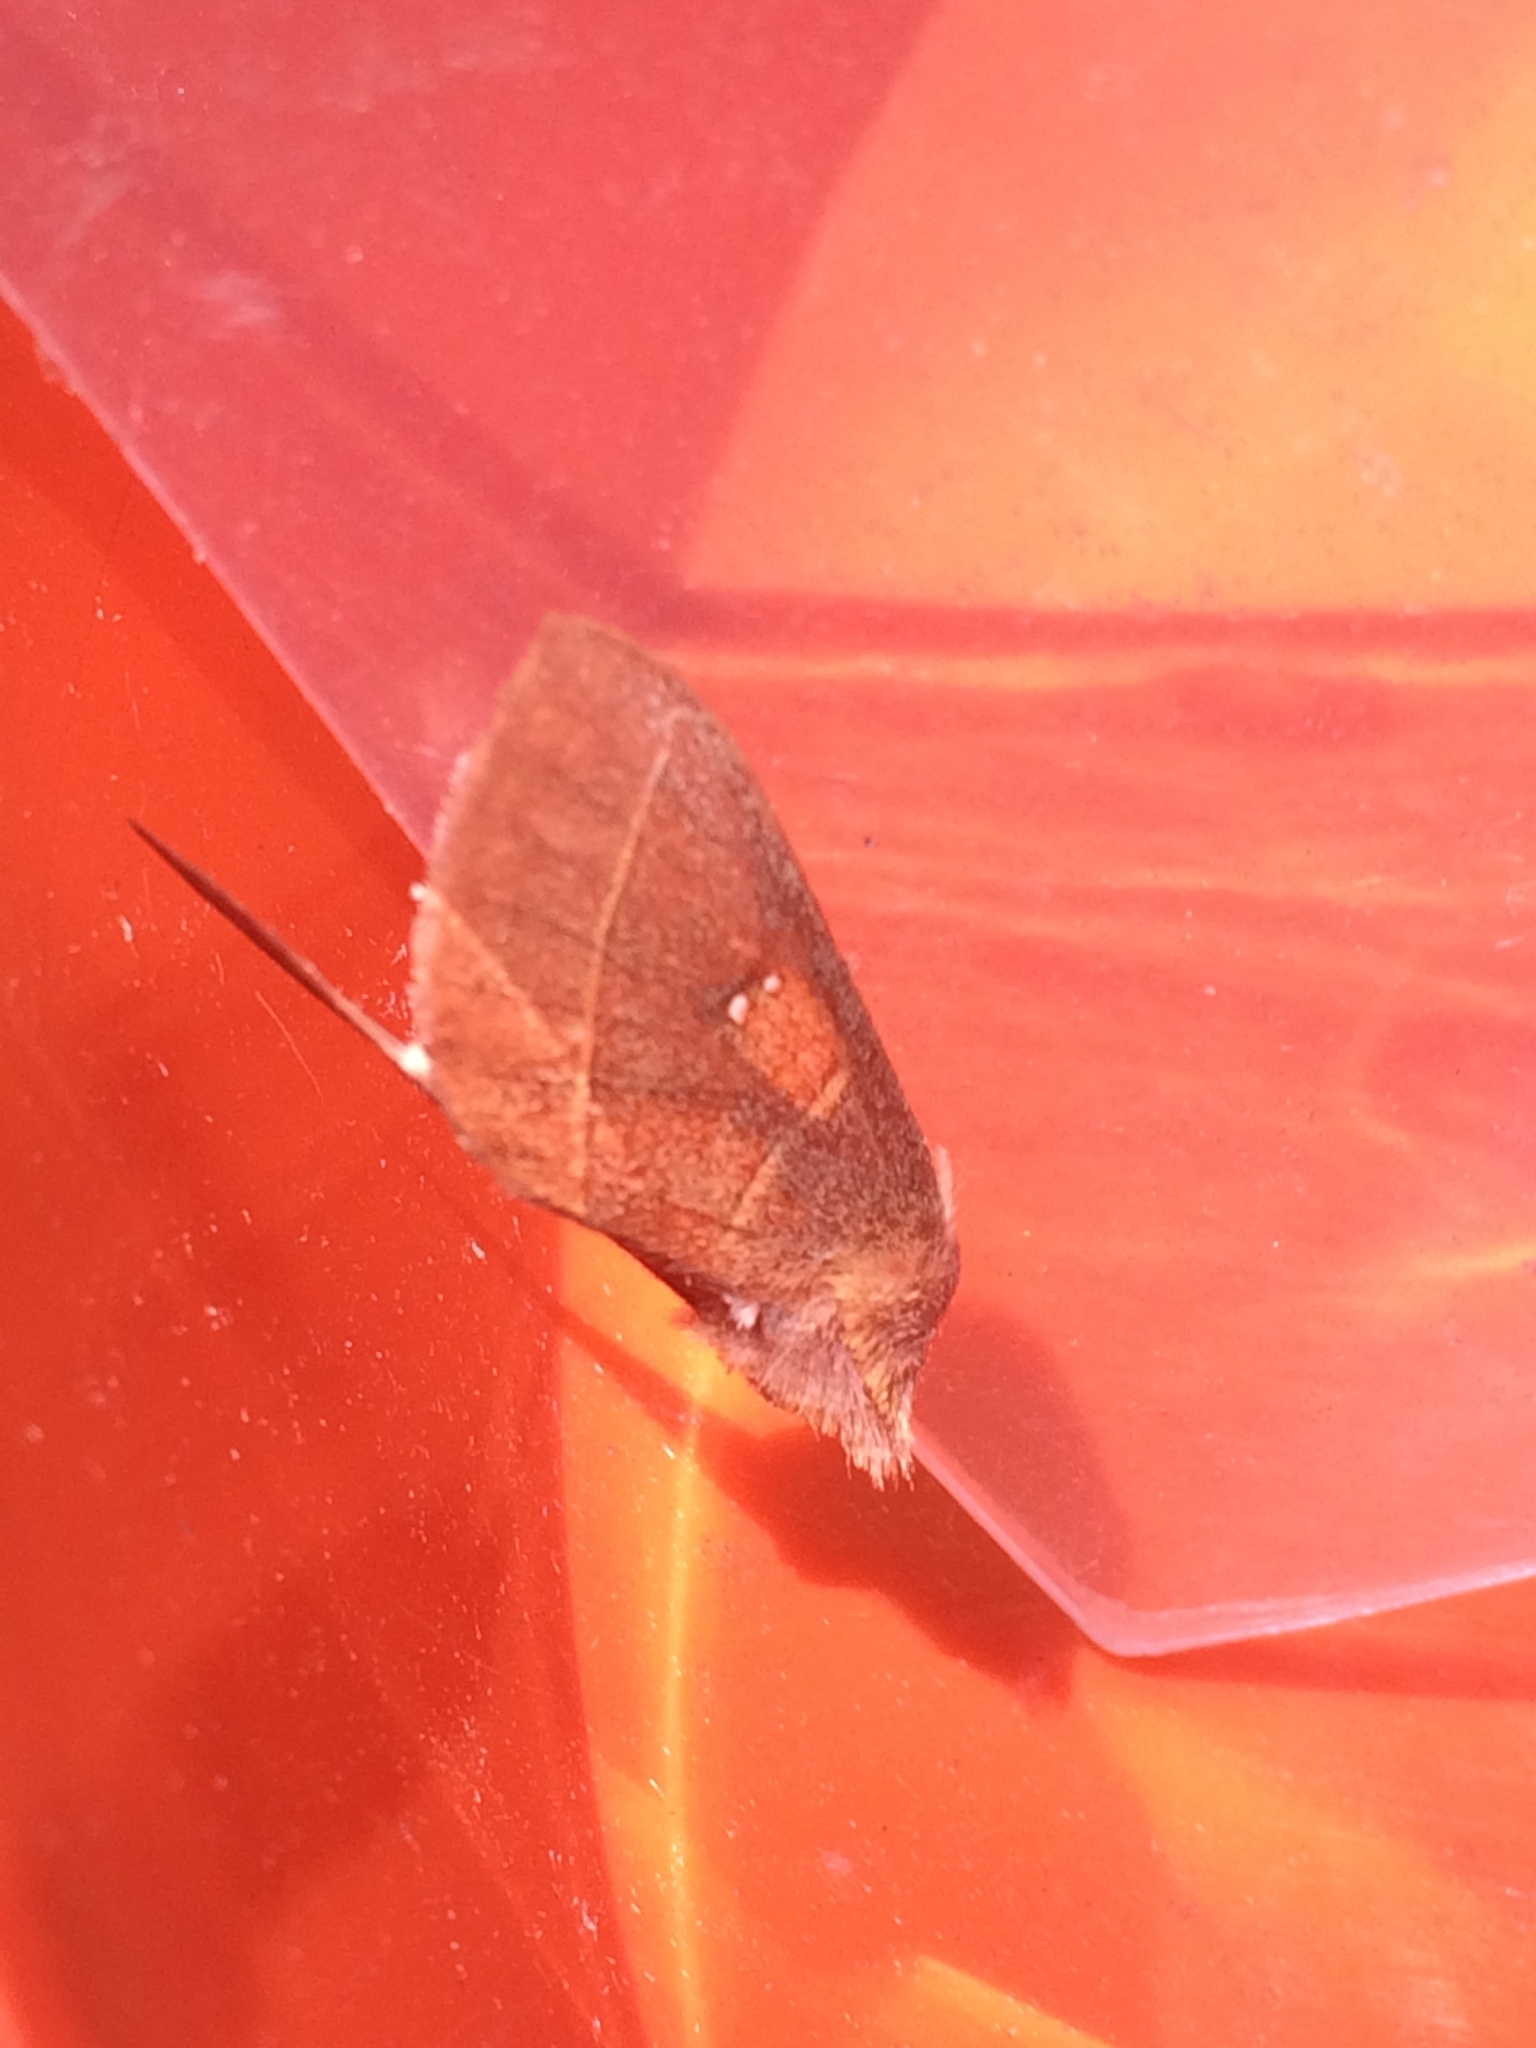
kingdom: Animalia
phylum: Arthropoda
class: Insecta
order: Lepidoptera
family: Notodontidae
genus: Nadata
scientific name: Nadata gibbosa
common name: White-dotted prominent
